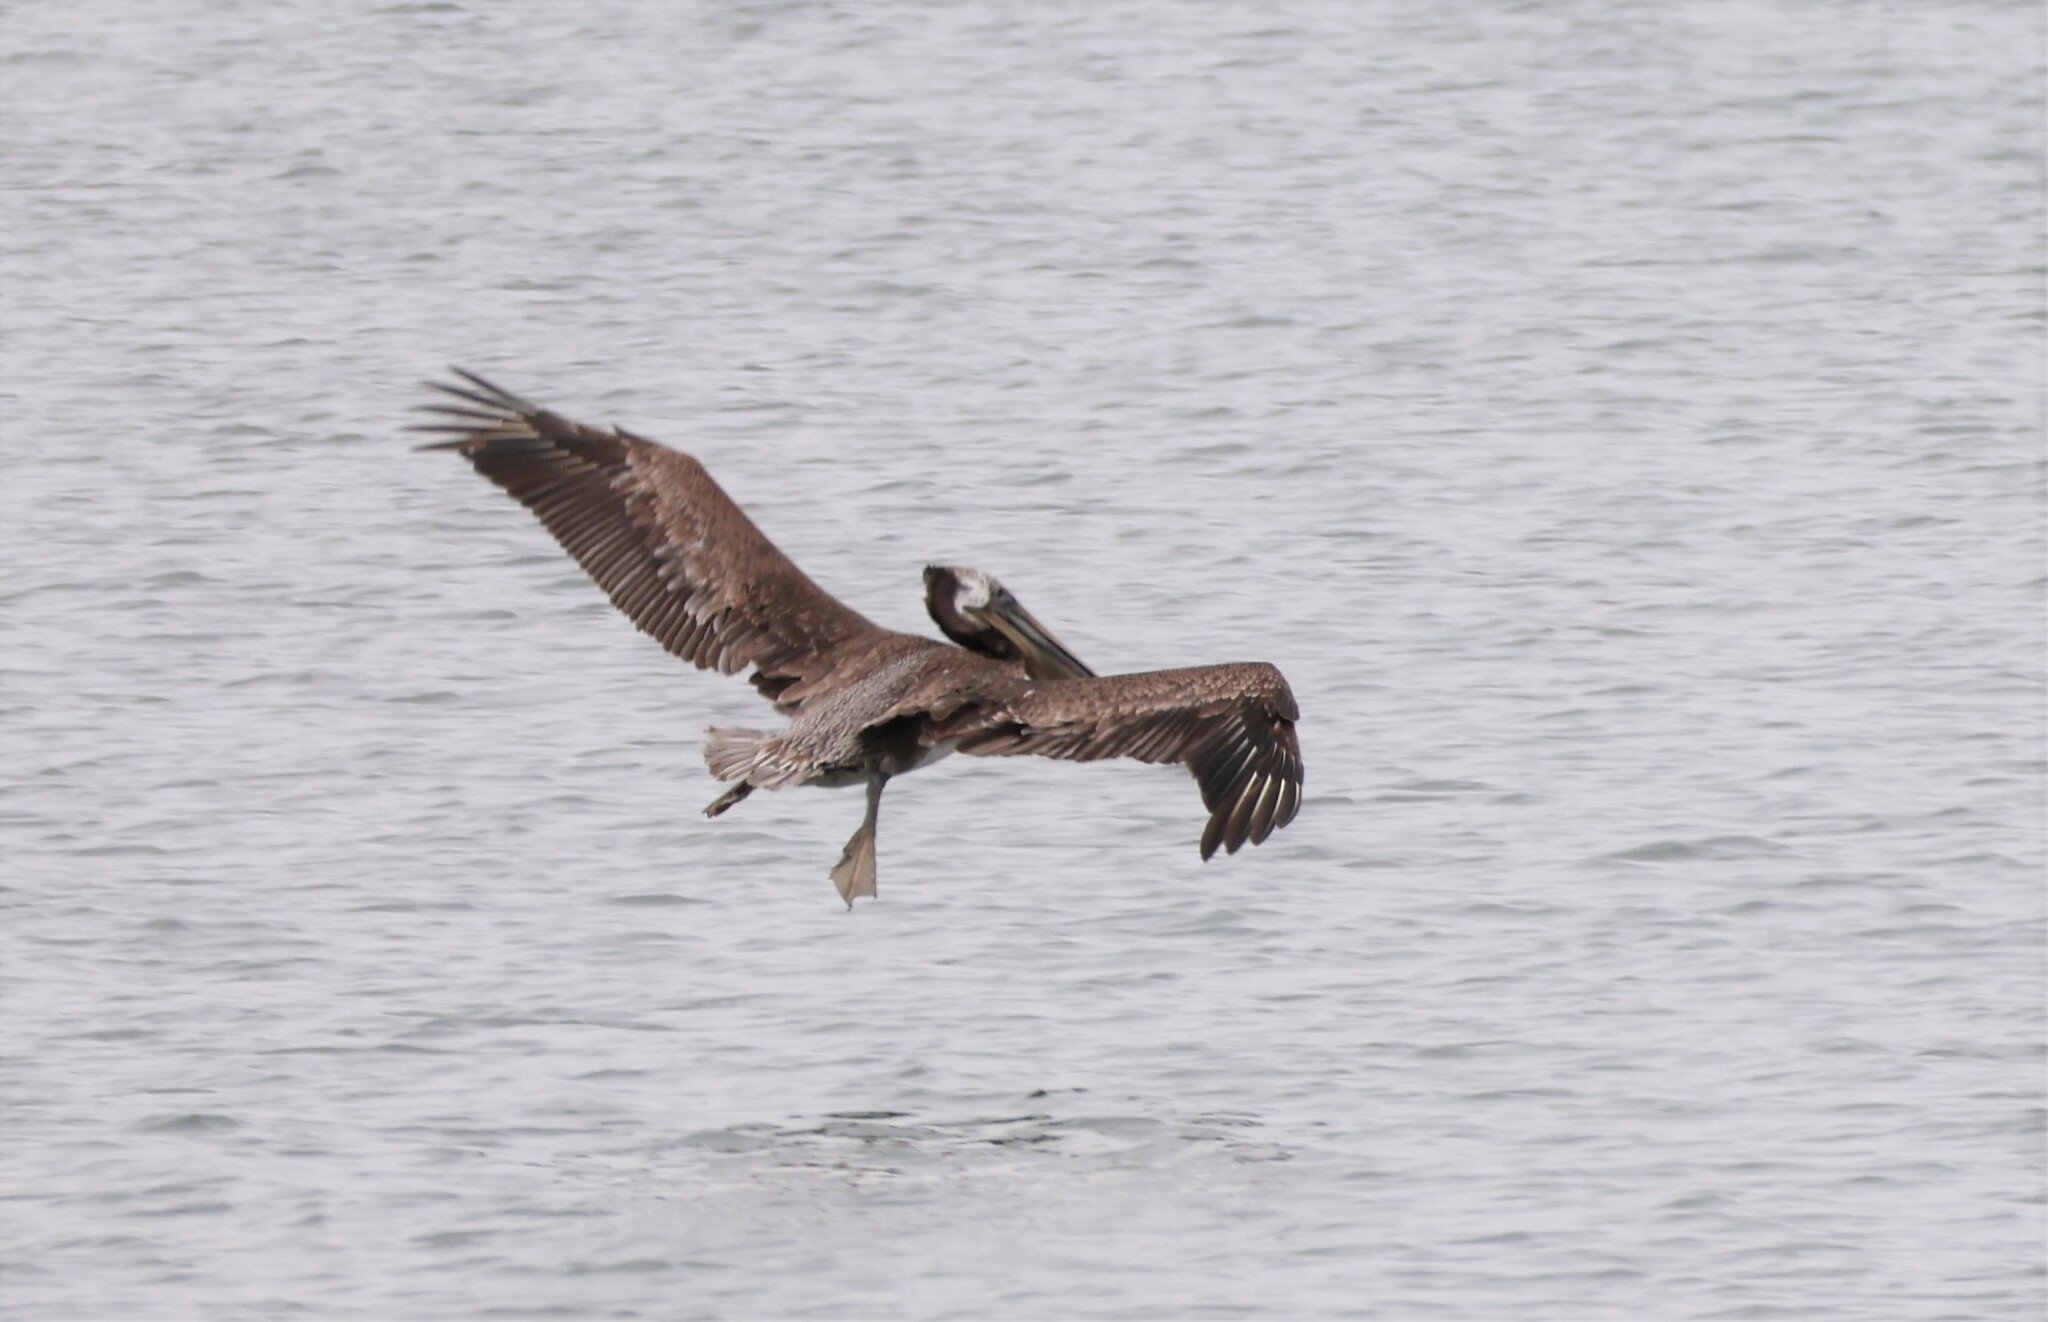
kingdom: Animalia
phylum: Chordata
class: Aves
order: Pelecaniformes
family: Pelecanidae
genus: Pelecanus
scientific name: Pelecanus occidentalis
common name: Brown pelican
